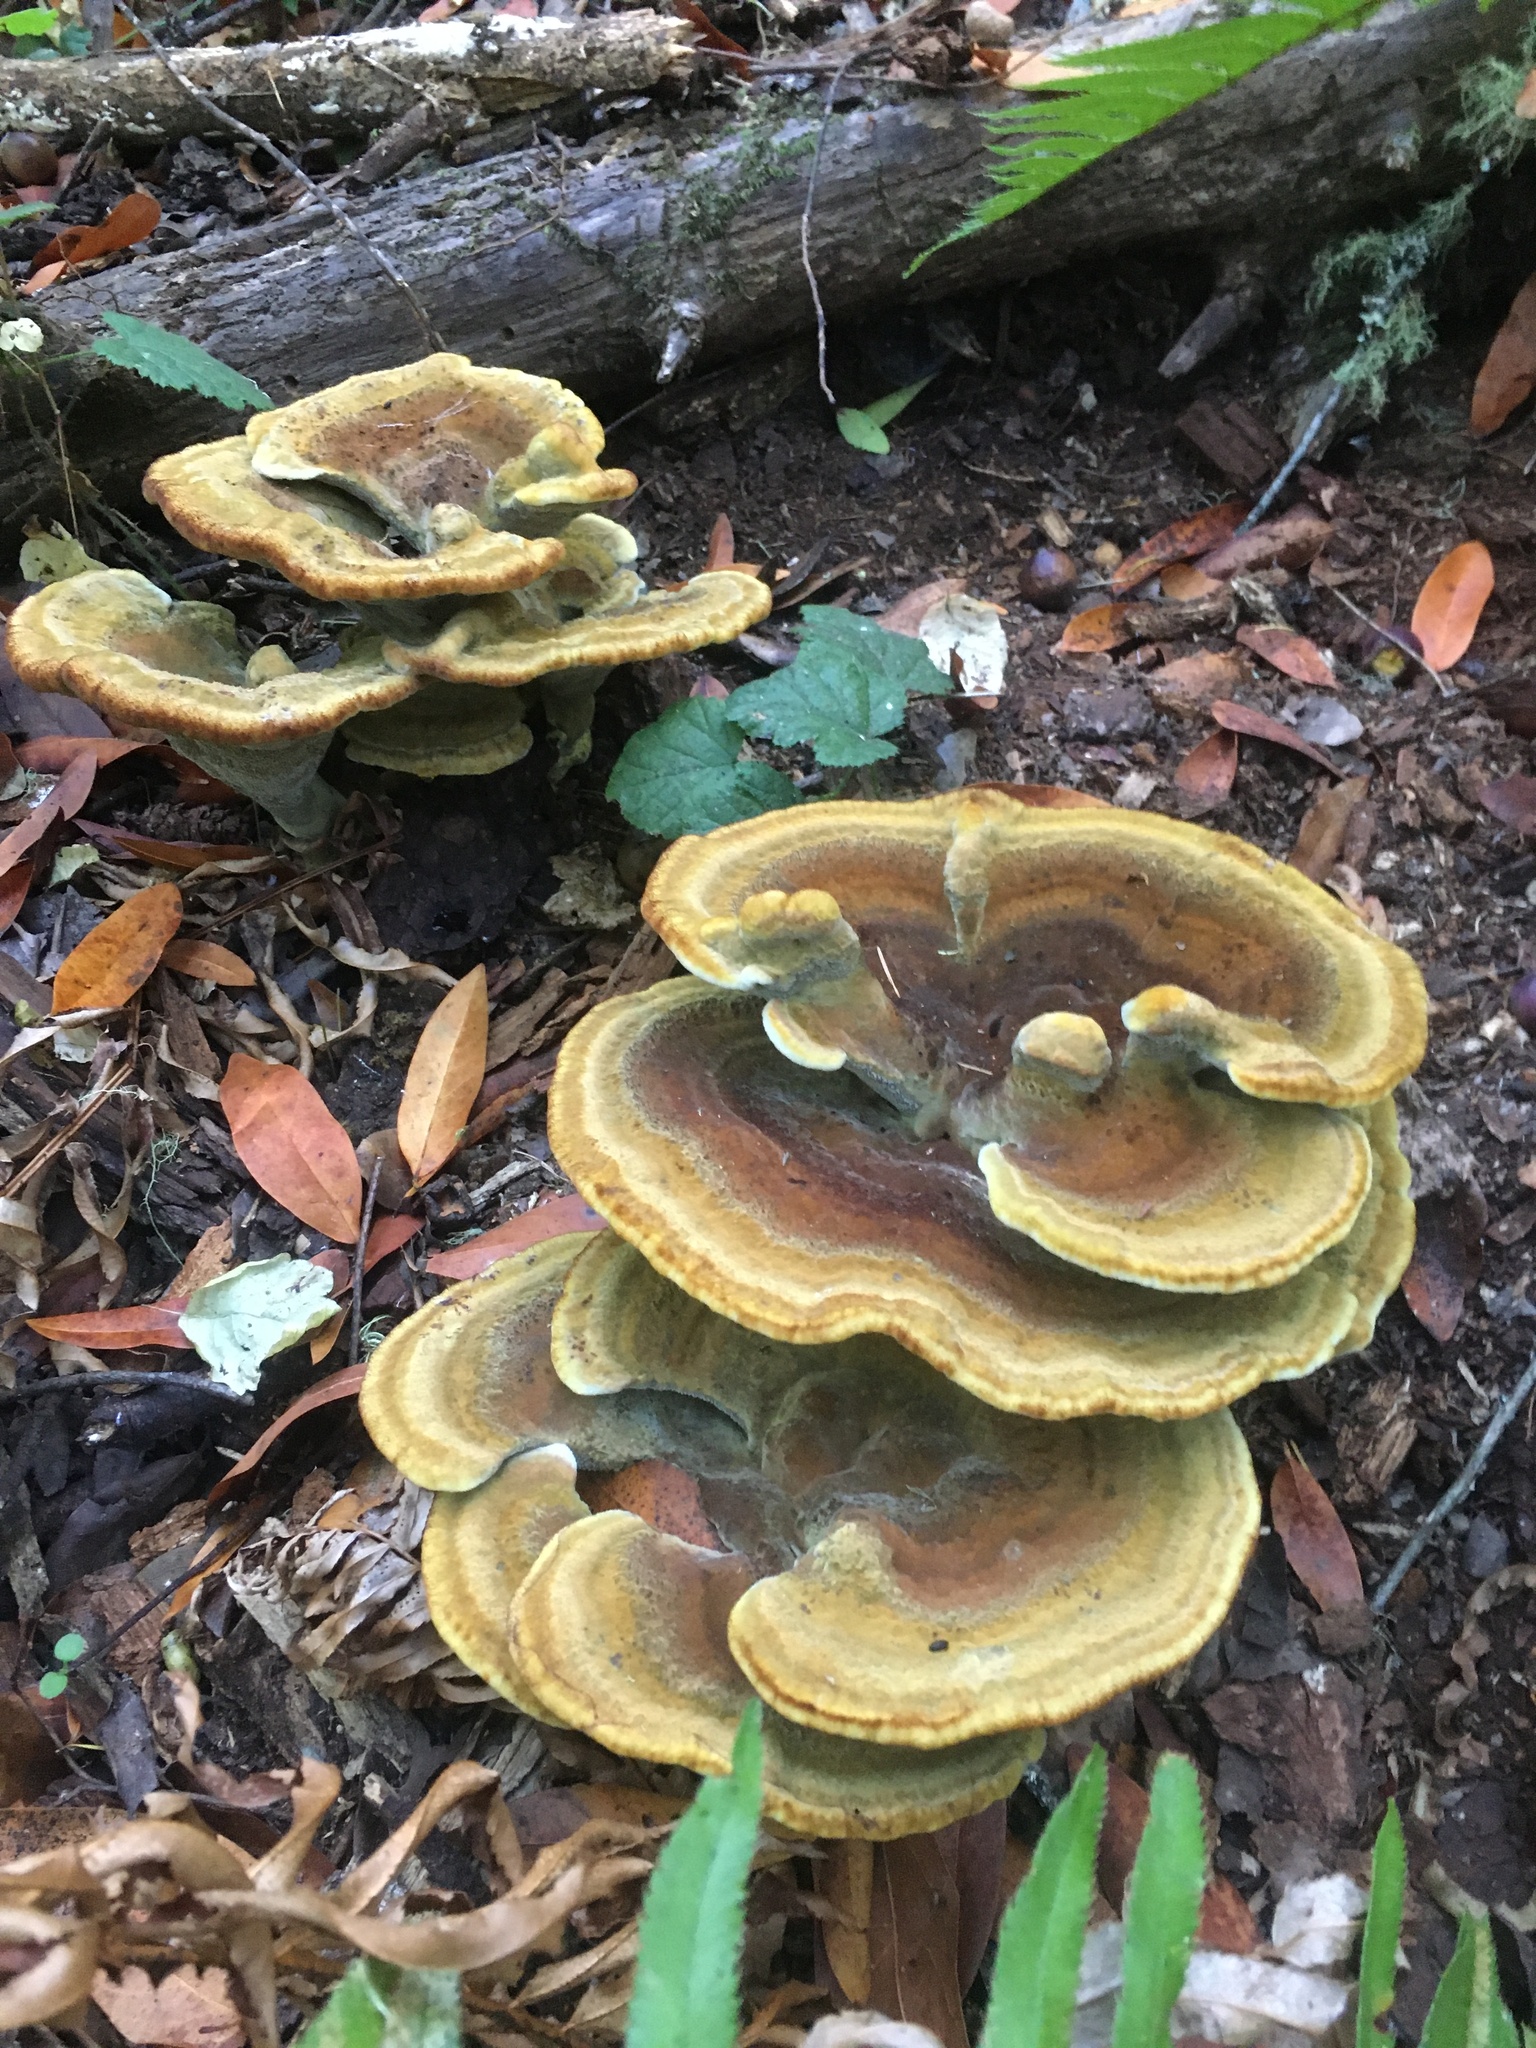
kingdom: Fungi
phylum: Basidiomycota
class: Agaricomycetes
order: Polyporales
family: Laetiporaceae
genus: Phaeolus
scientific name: Phaeolus schweinitzii
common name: Dyer's mazegill
